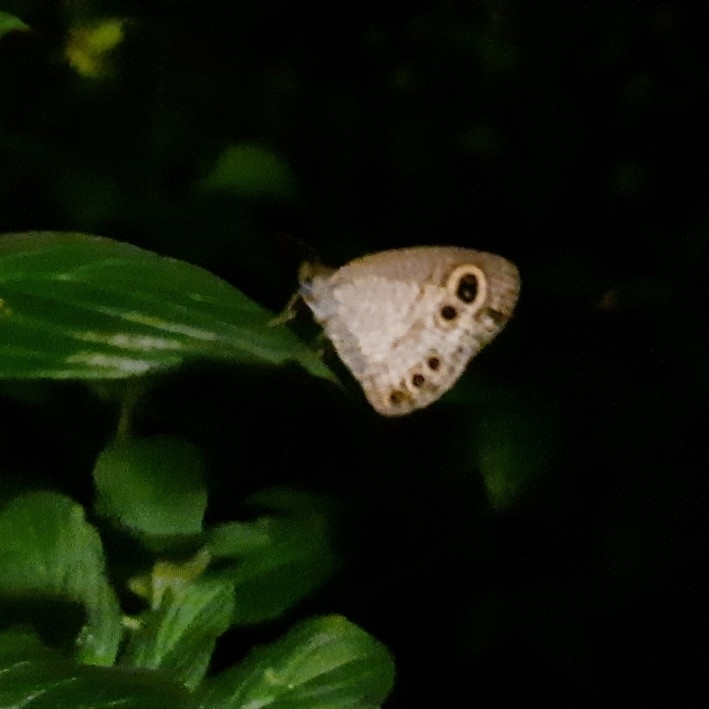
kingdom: Animalia
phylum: Arthropoda
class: Insecta
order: Lepidoptera
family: Nymphalidae
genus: Ypthima
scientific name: Ypthima huebneri
